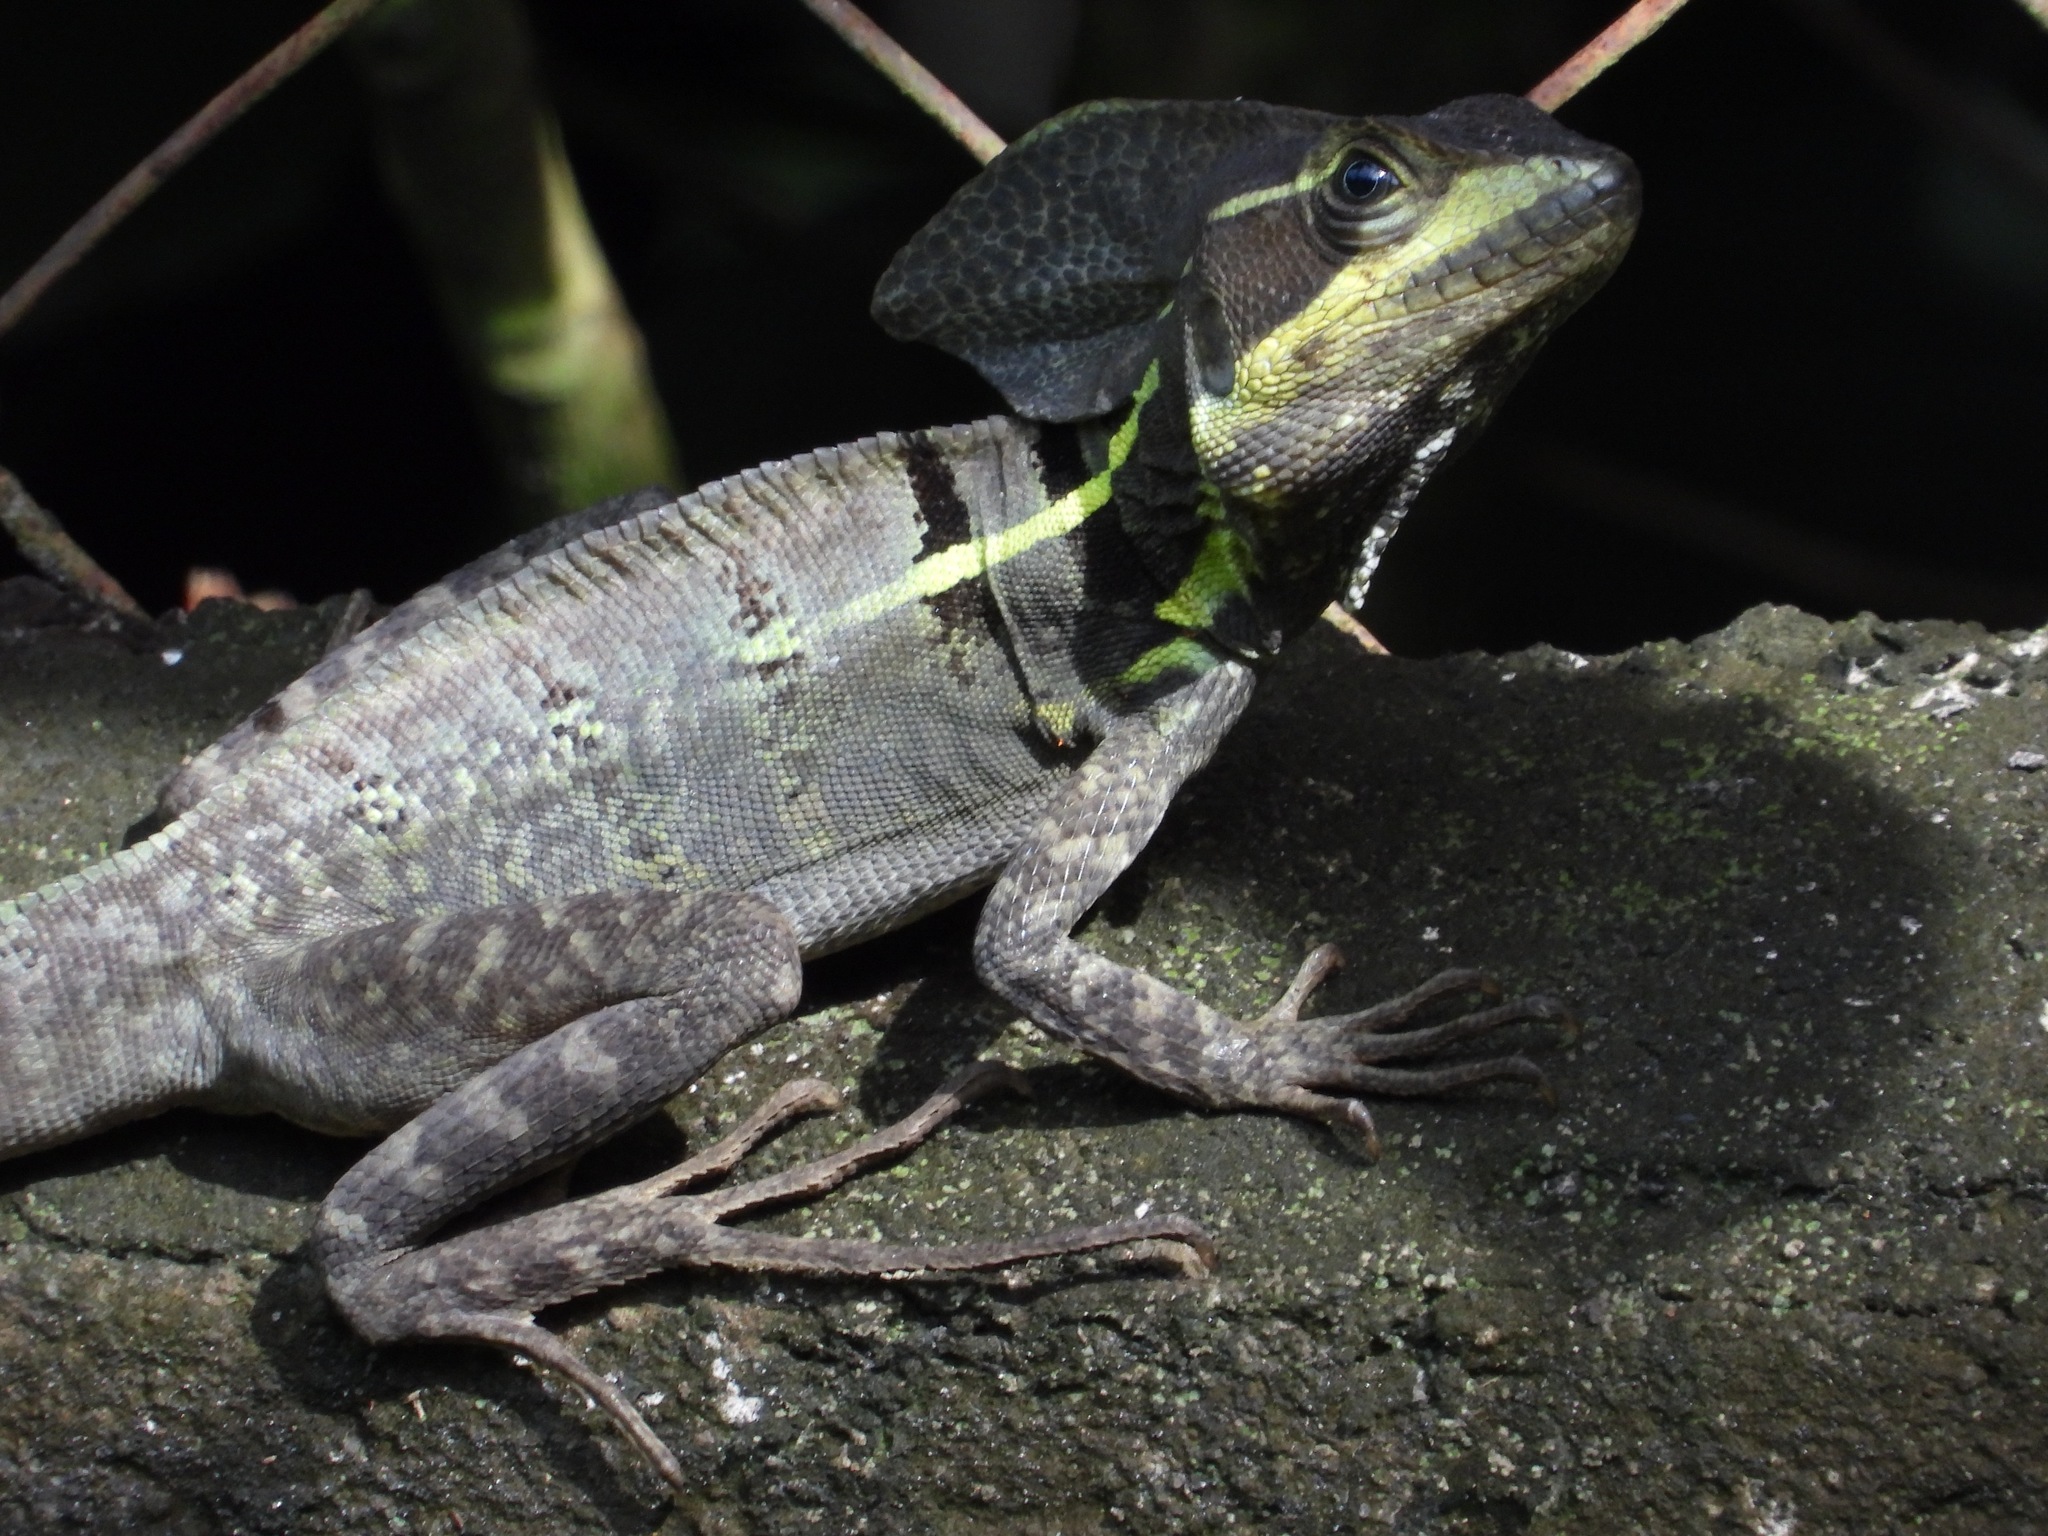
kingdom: Animalia
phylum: Chordata
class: Squamata
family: Corytophanidae
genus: Basiliscus
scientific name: Basiliscus vittatus
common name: Brown basilisk
